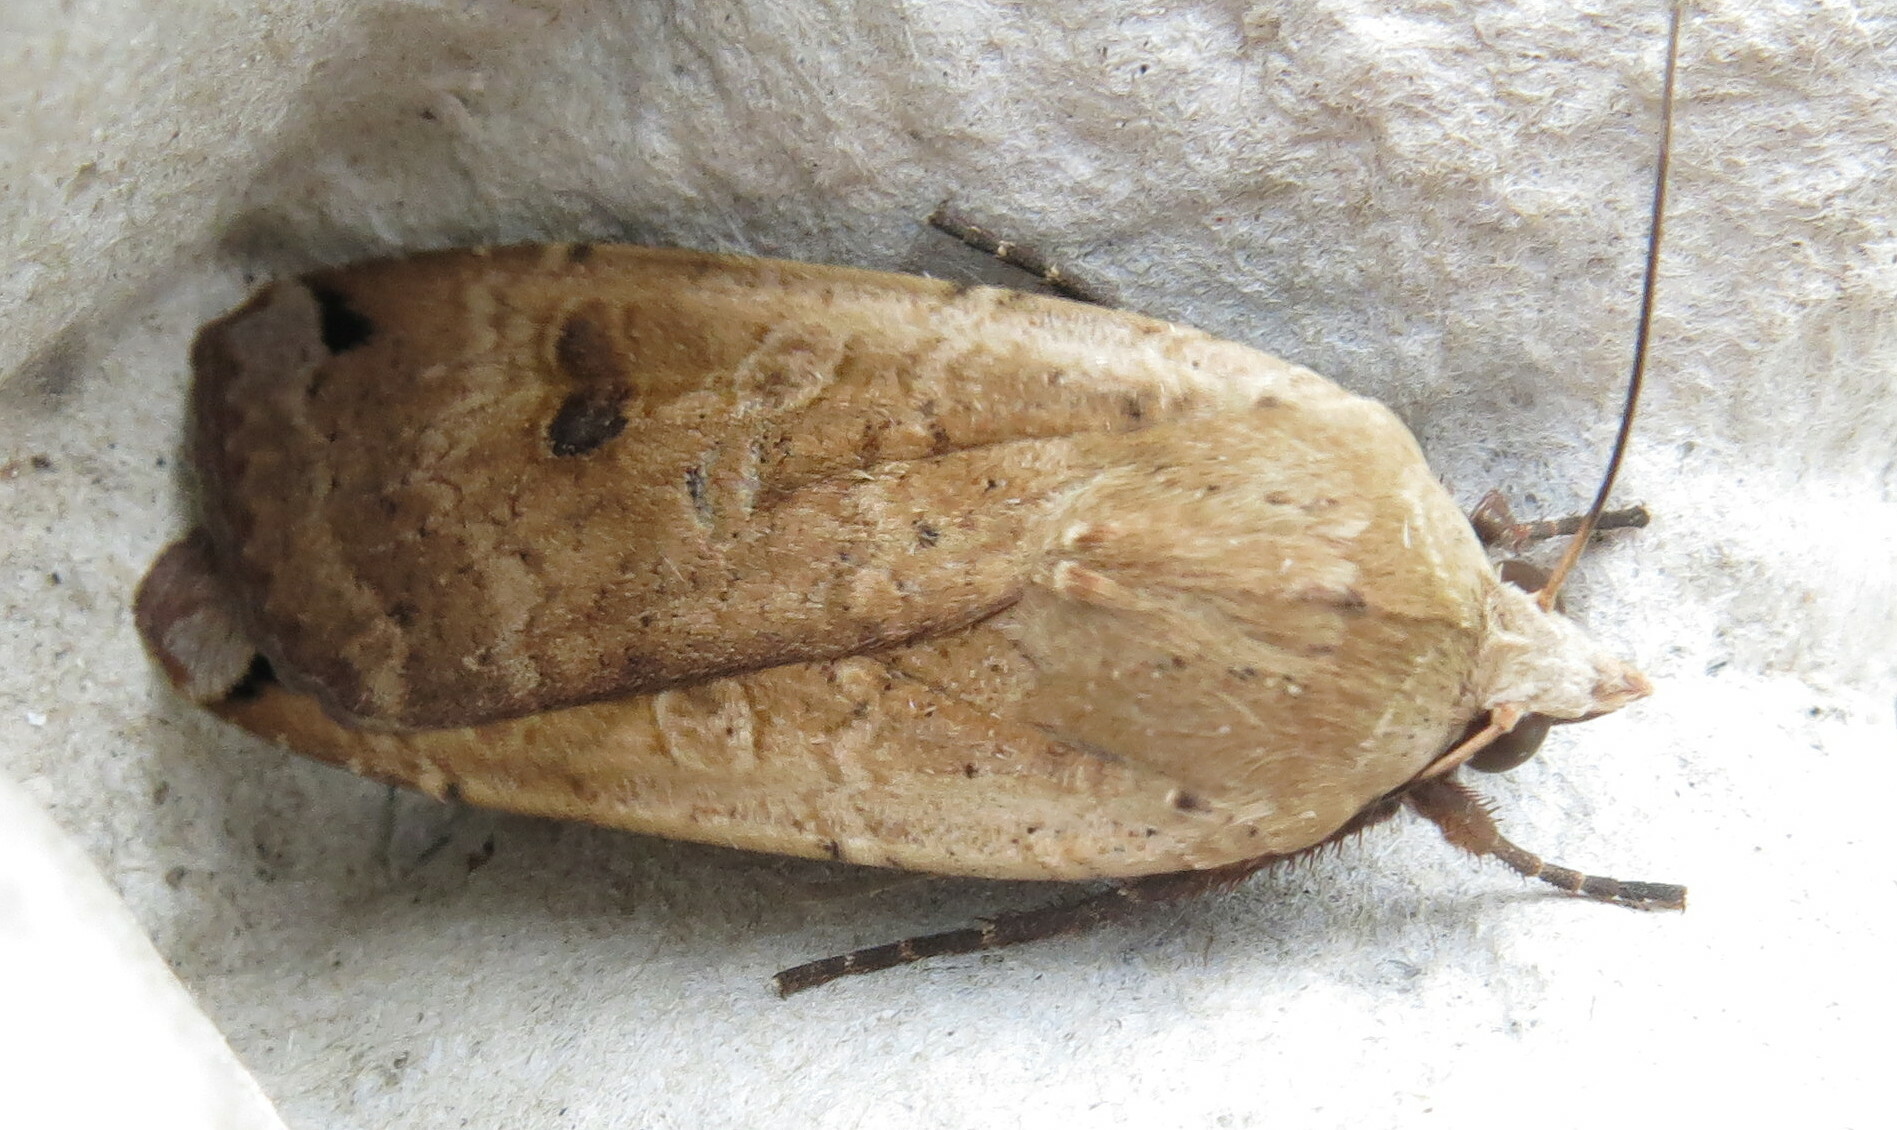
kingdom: Animalia
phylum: Arthropoda
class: Insecta
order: Lepidoptera
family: Noctuidae
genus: Noctua
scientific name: Noctua pronuba
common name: Large yellow underwing
